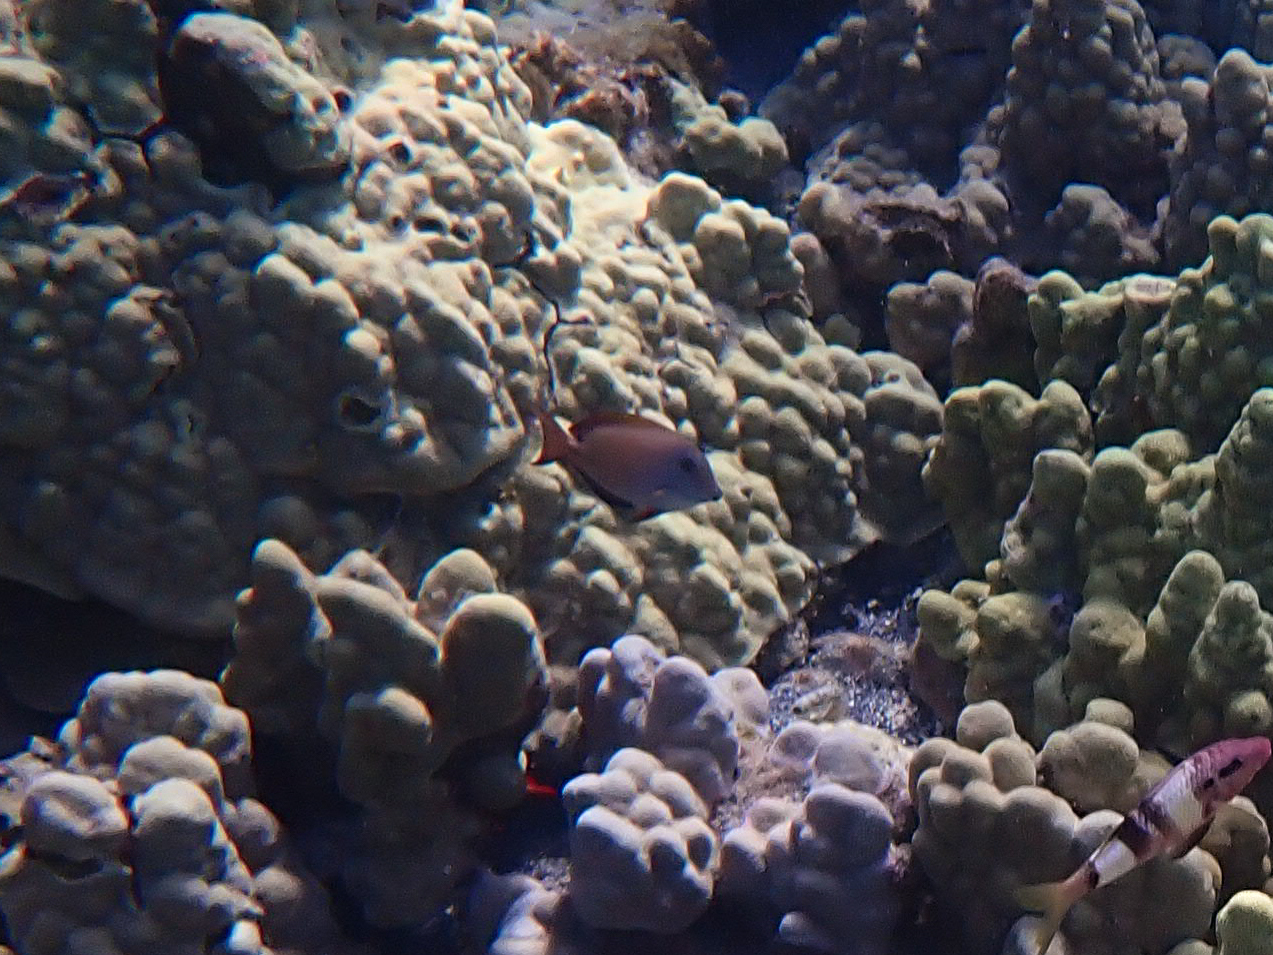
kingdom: Animalia
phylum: Chordata
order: Perciformes
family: Acanthuridae
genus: Acanthurus
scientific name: Acanthurus nigrofuscus
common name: Blackspot surgeonfish
